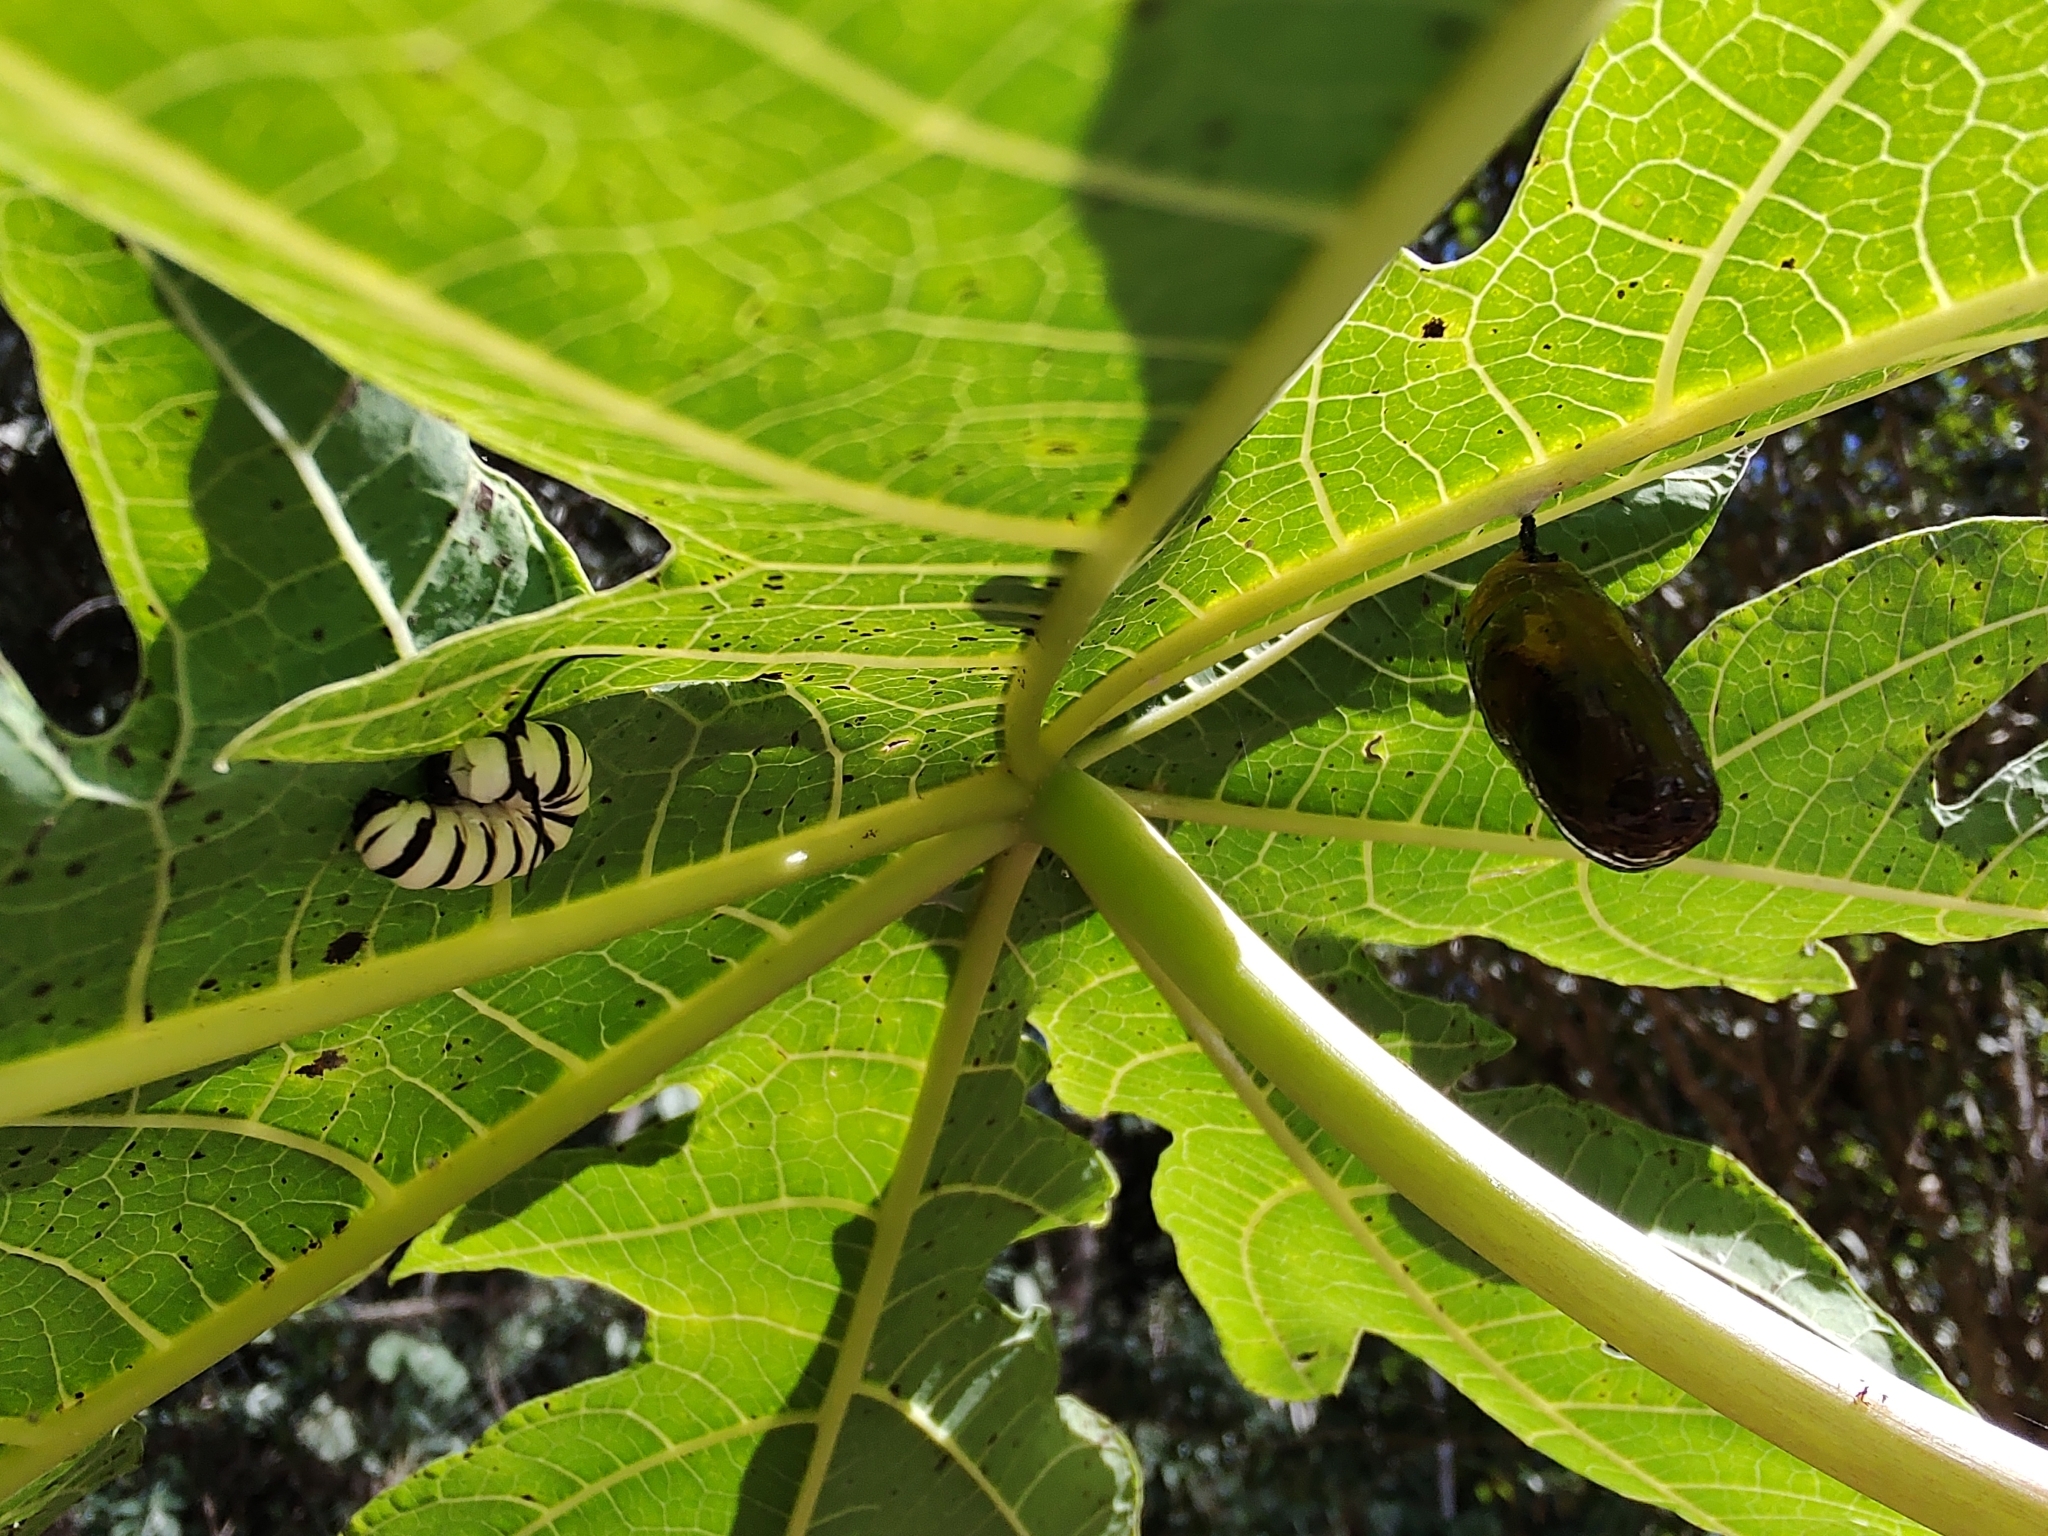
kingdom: Animalia
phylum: Arthropoda
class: Insecta
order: Lepidoptera
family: Nymphalidae
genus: Lycorea
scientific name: Lycorea cleobaea
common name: Tiger mimic-queen
